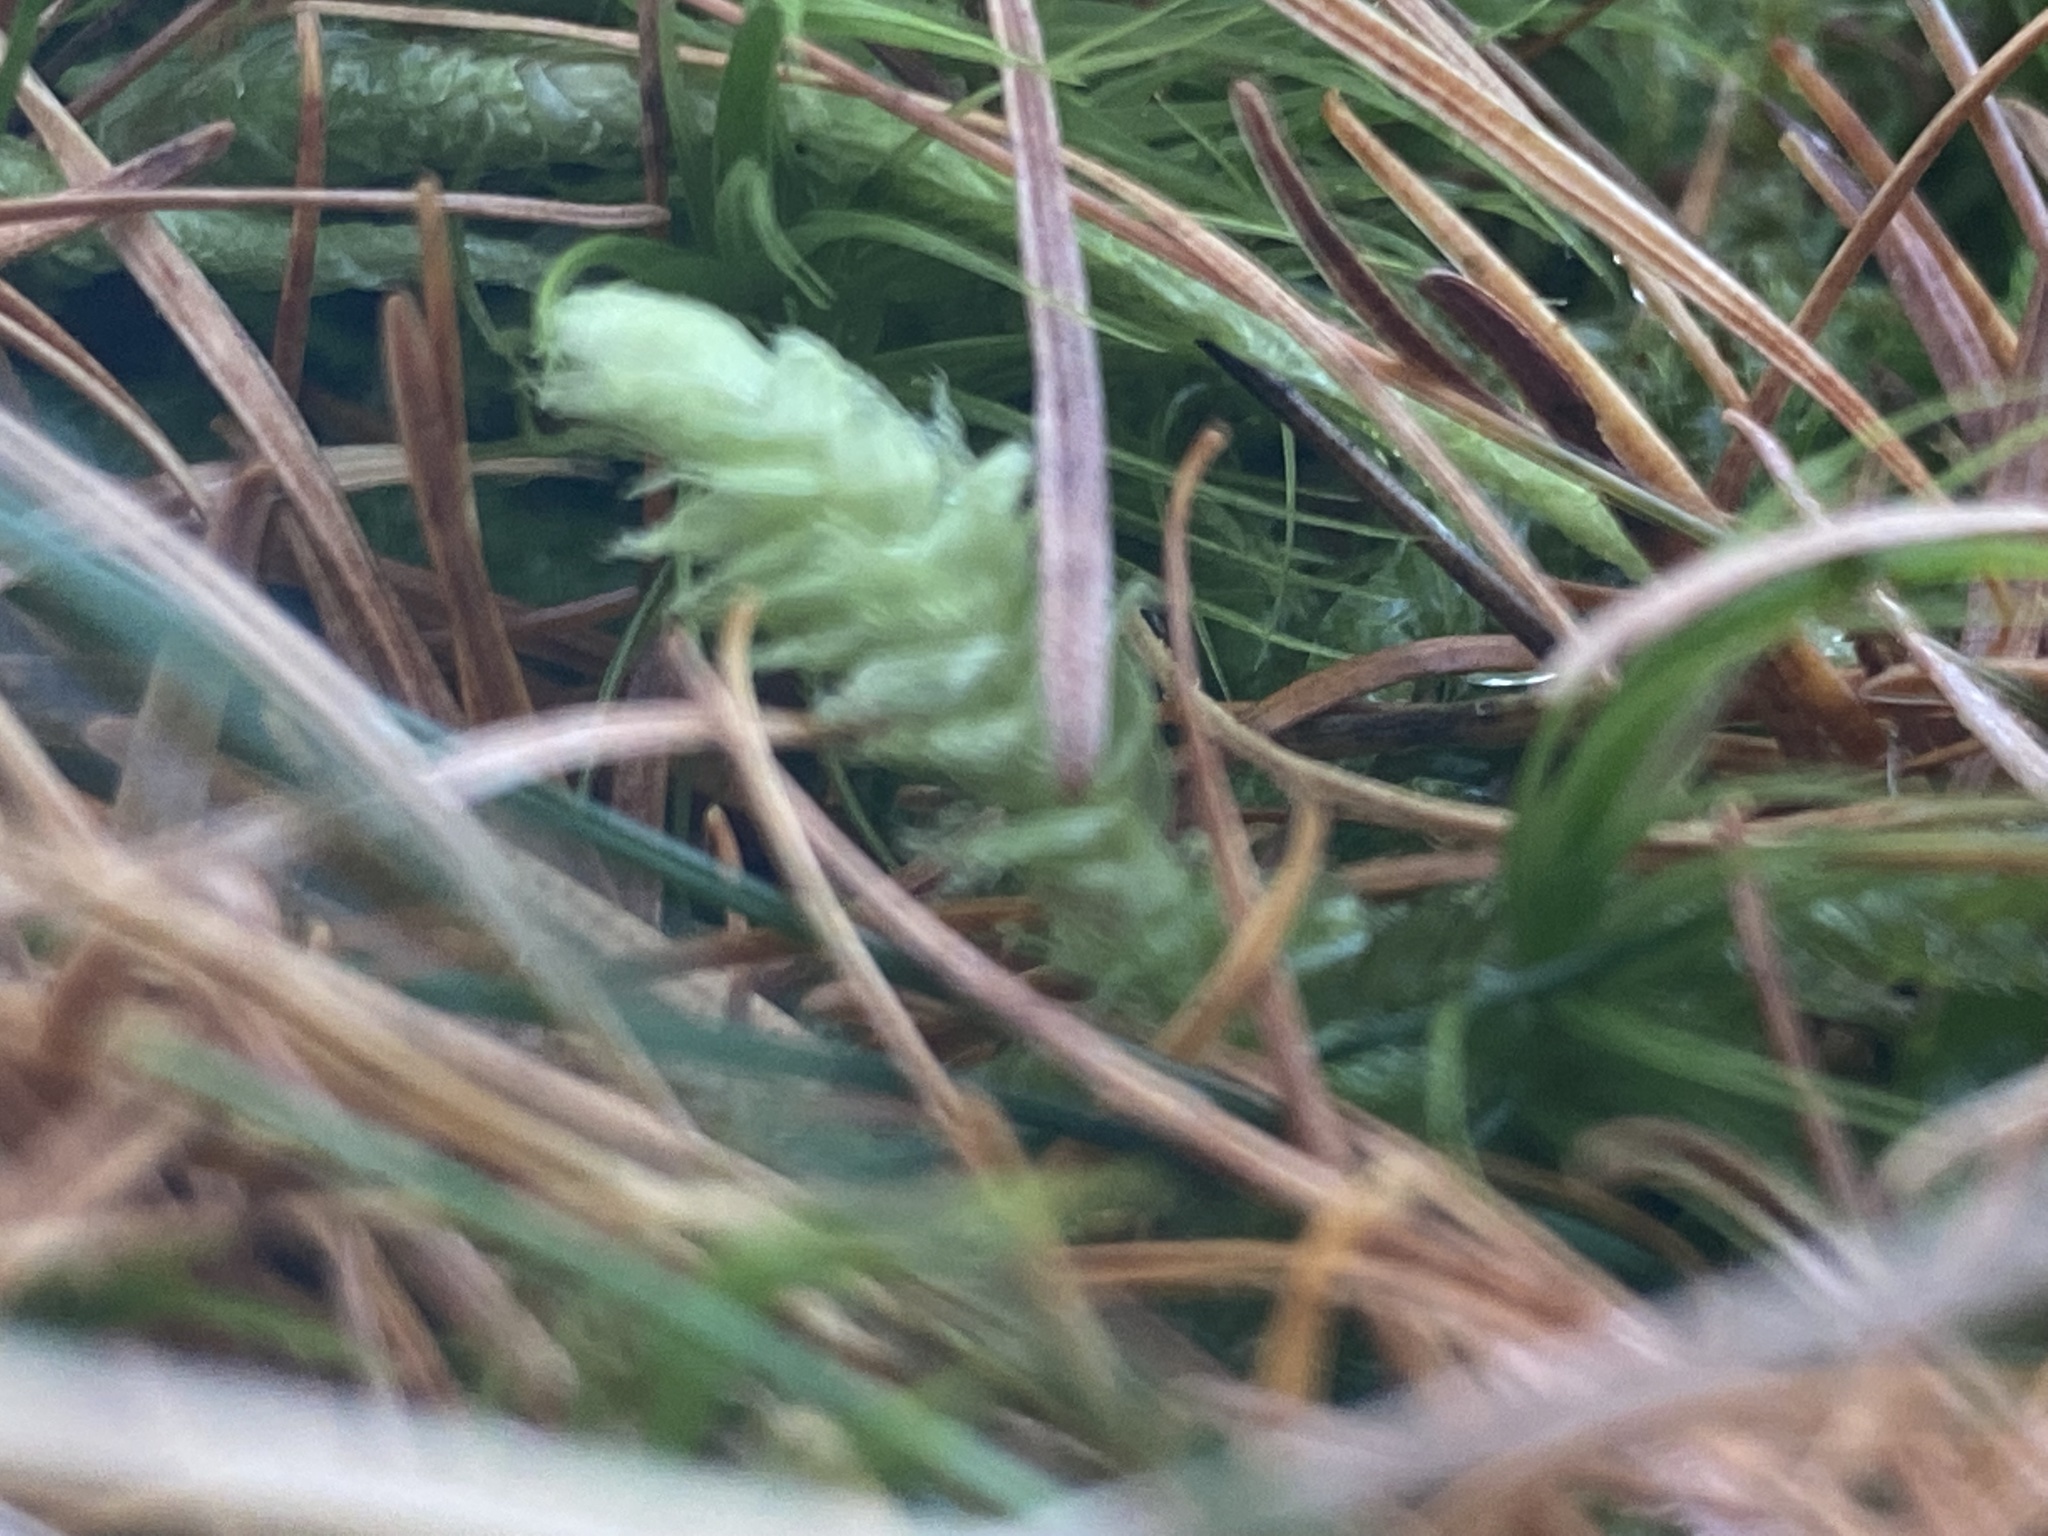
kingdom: Plantae
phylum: Bryophyta
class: Bryopsida
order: Hypnales
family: Plagiotheciaceae
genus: Plagiothecium
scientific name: Plagiothecium undulatum
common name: Waved silk-moss
